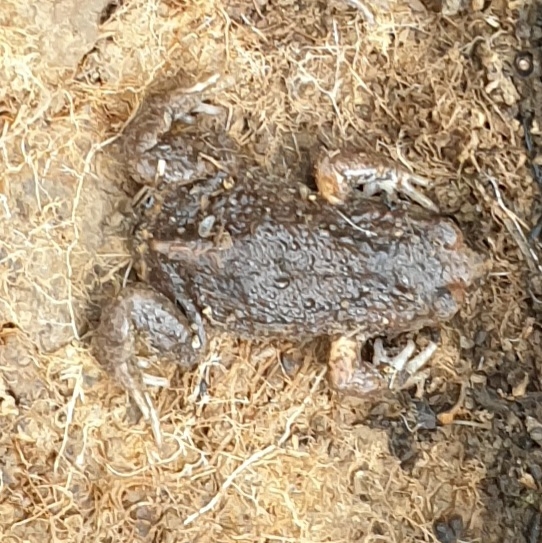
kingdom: Animalia
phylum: Chordata
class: Amphibia
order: Anura
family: Myobatrachidae
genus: Pseudophryne
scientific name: Pseudophryne bibronii
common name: Bibron’s toadlet
